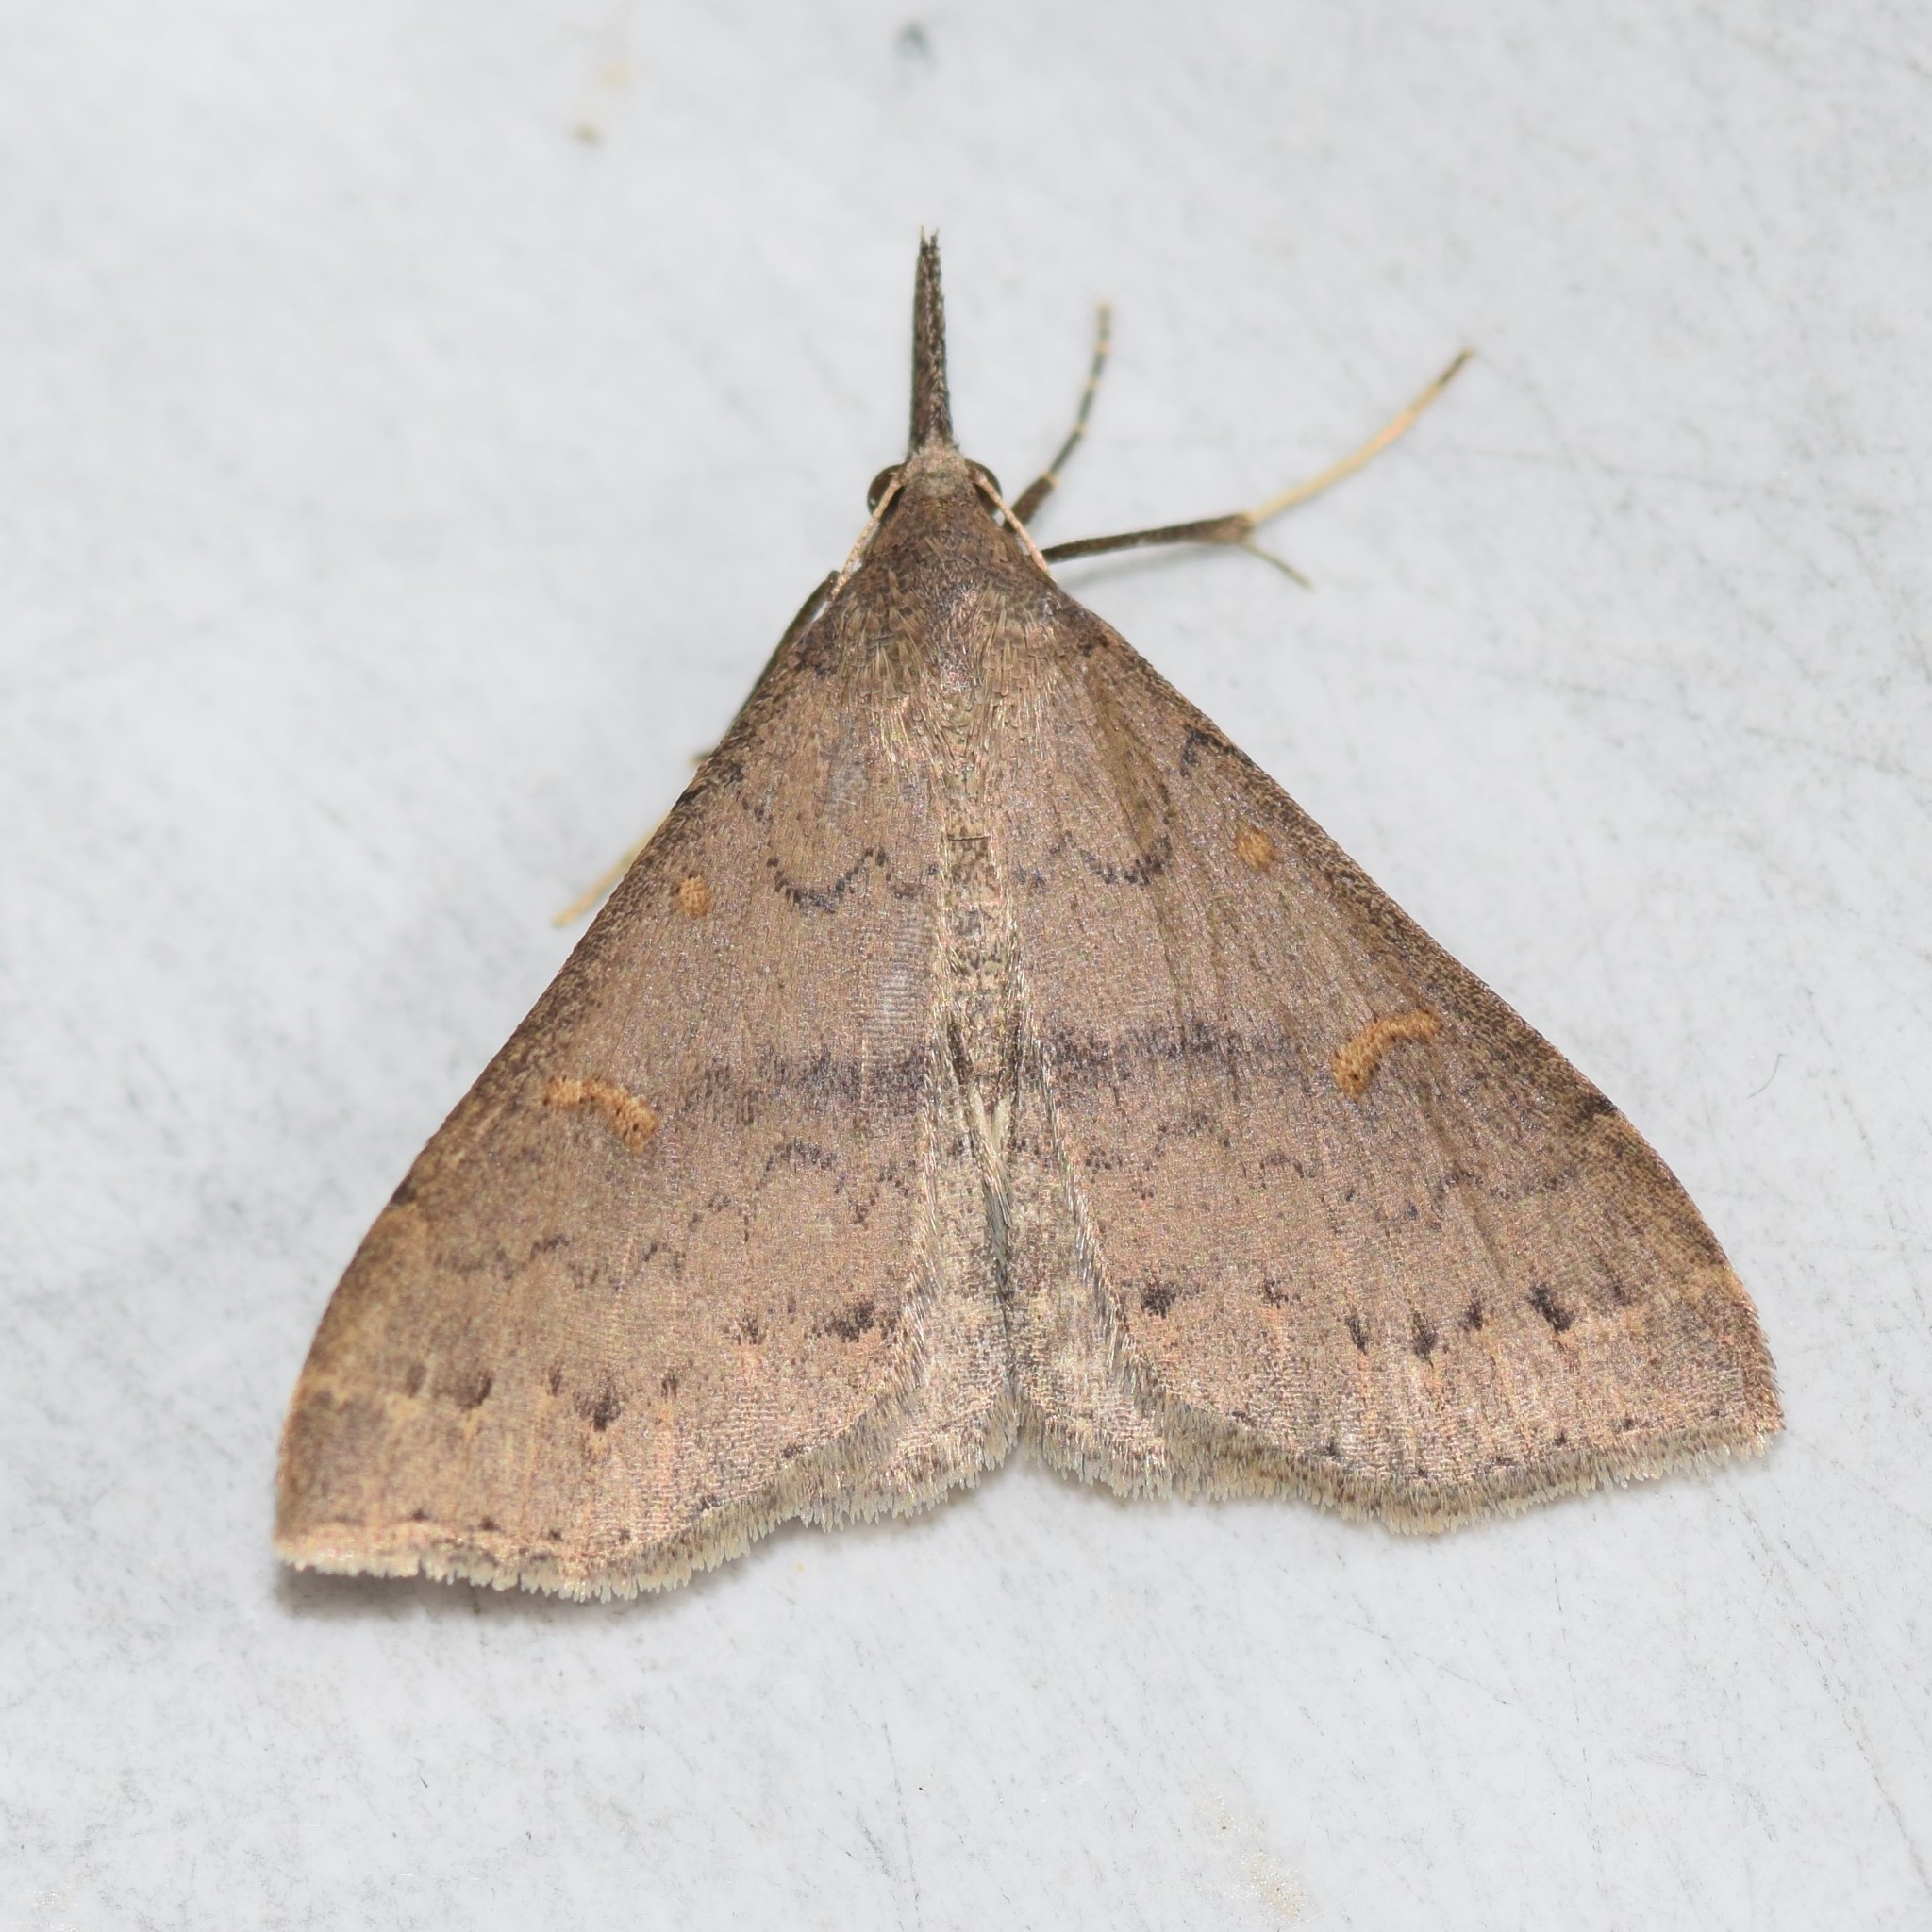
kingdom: Animalia
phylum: Arthropoda
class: Insecta
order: Lepidoptera
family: Erebidae
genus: Renia
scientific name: Renia adspergillus
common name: Speckled renia moth
